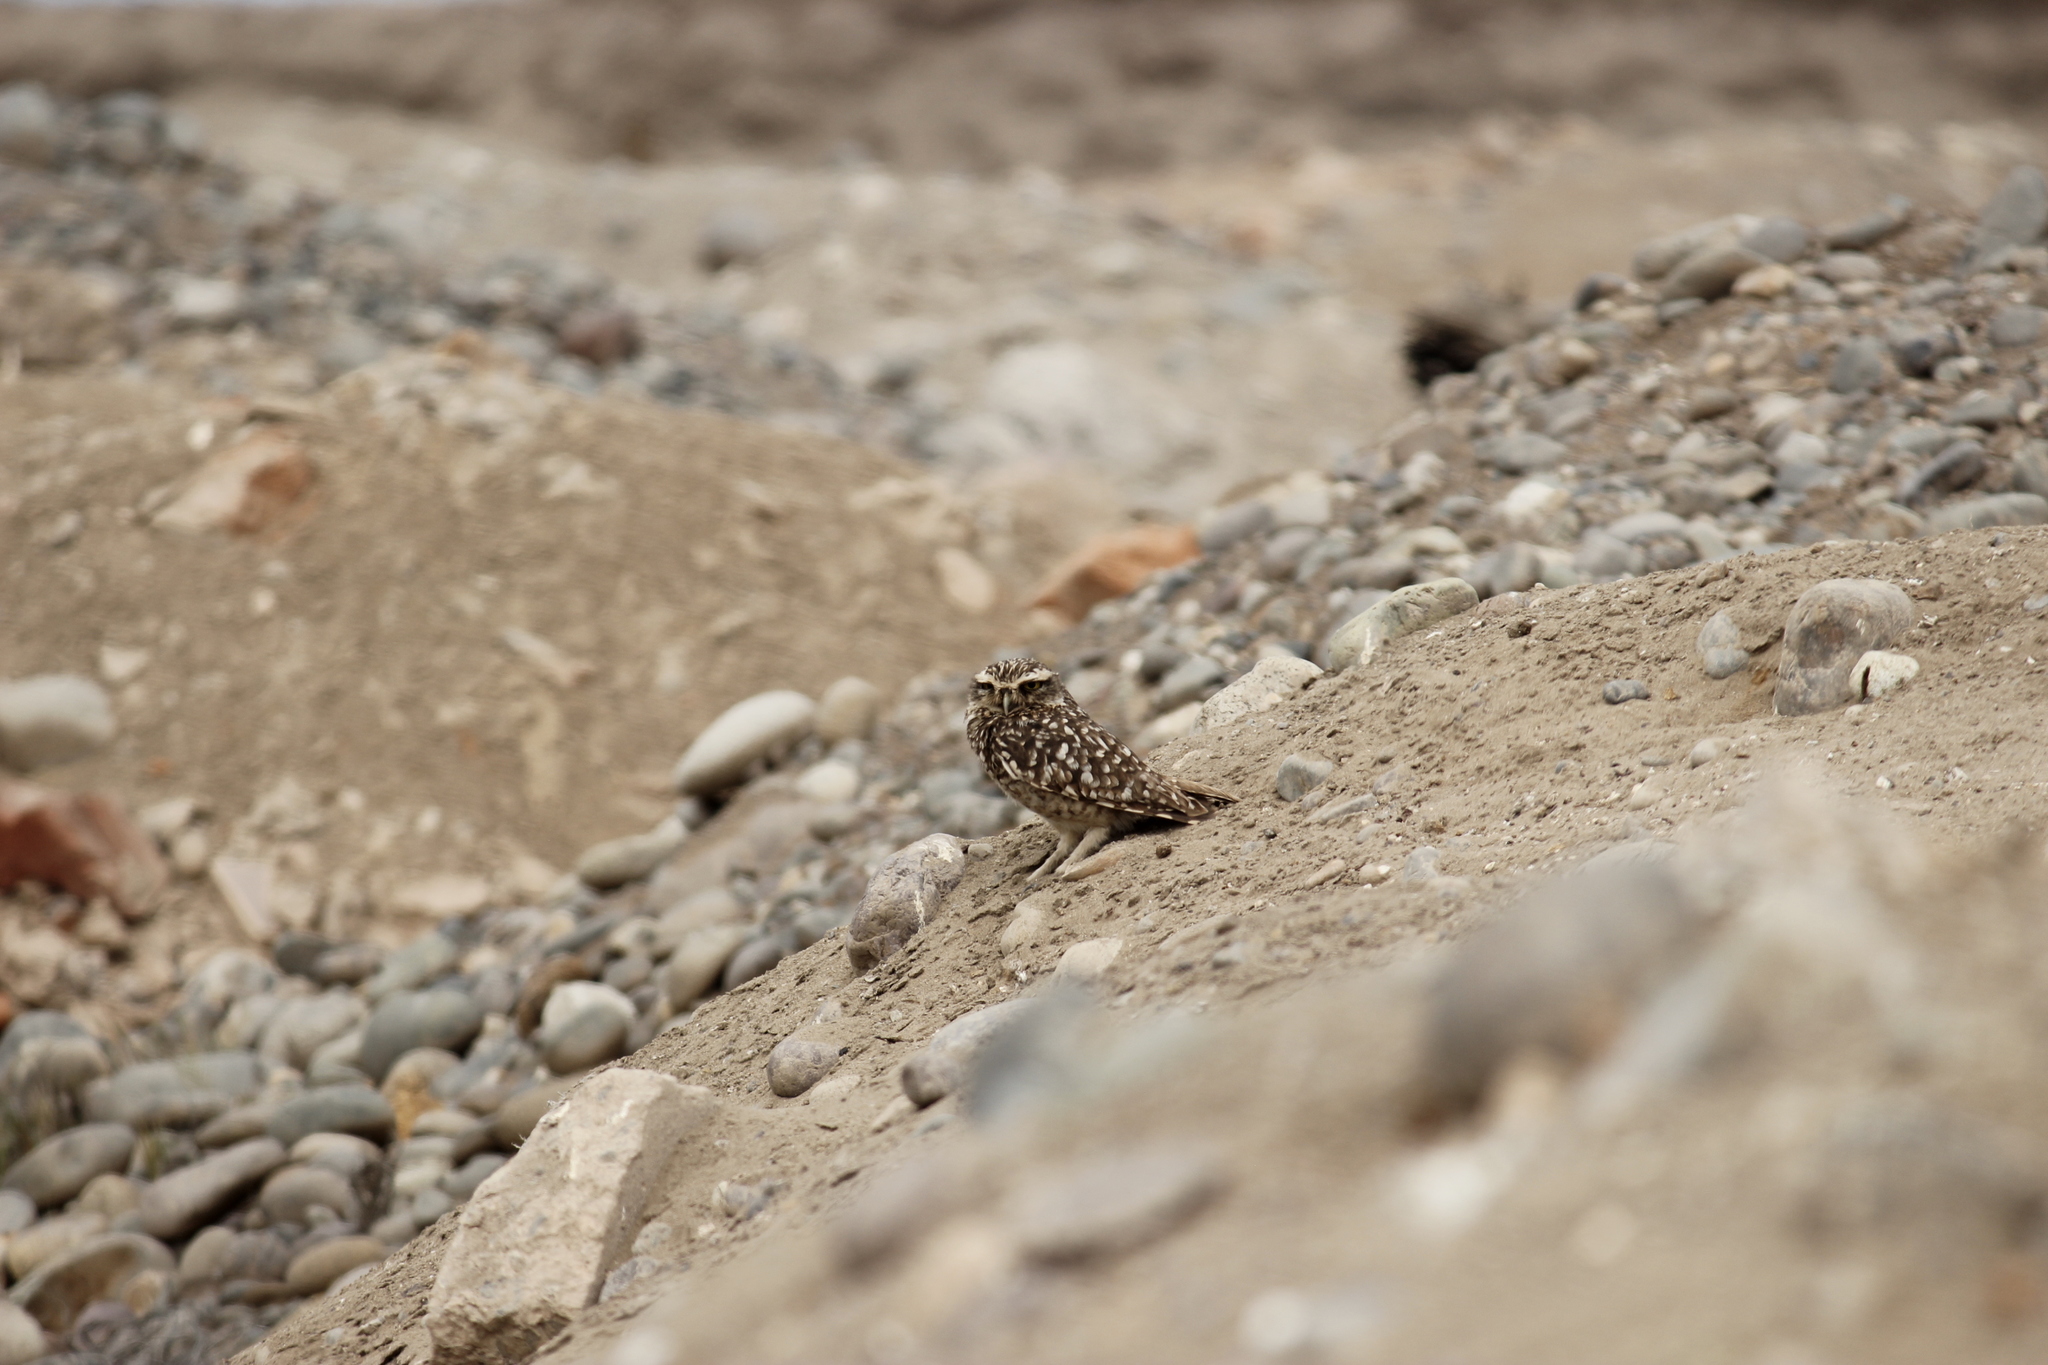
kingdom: Animalia
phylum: Chordata
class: Aves
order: Strigiformes
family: Strigidae
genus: Athene
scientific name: Athene cunicularia
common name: Burrowing owl
